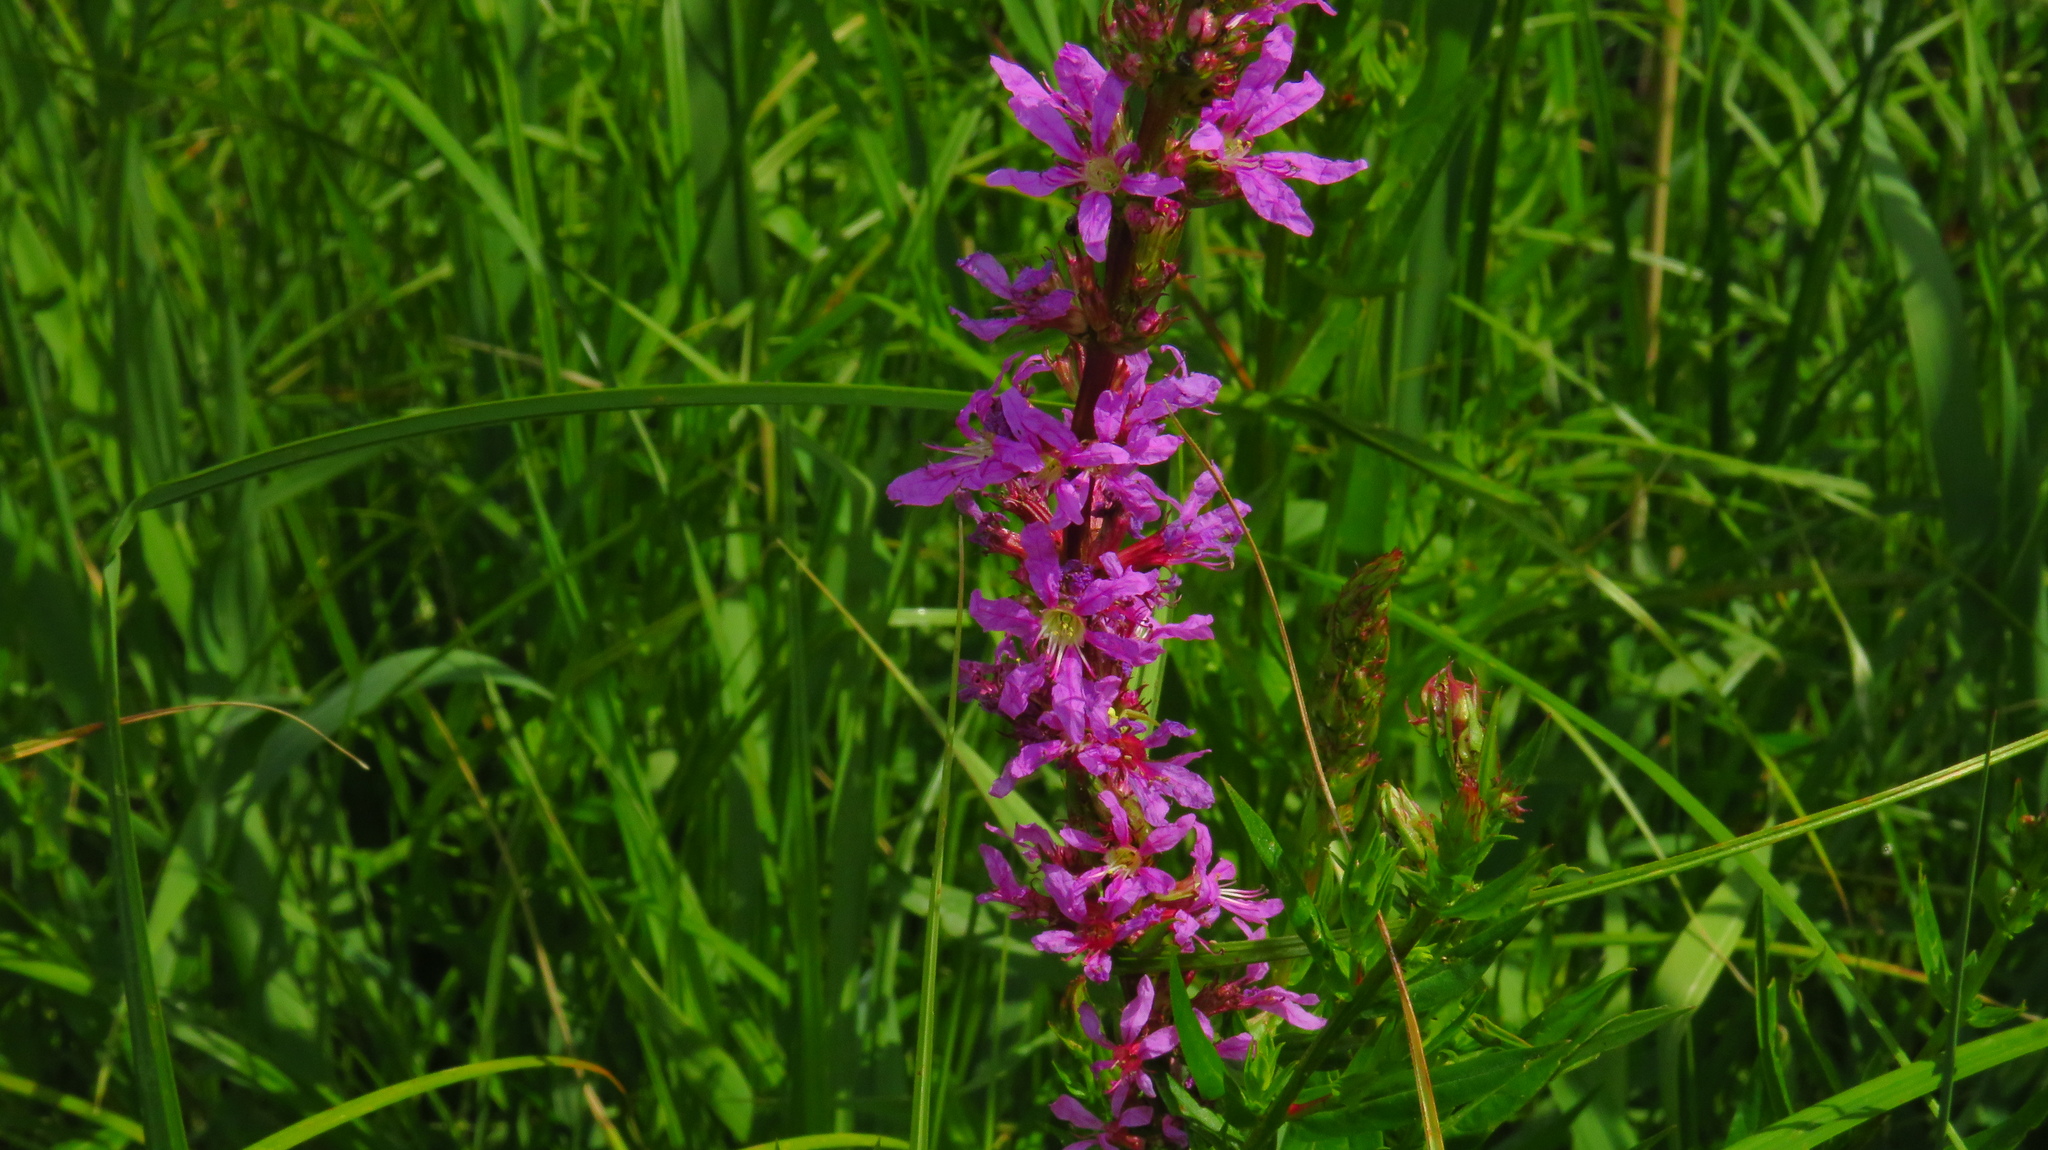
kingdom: Plantae
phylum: Tracheophyta
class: Magnoliopsida
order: Myrtales
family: Lythraceae
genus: Lythrum
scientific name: Lythrum salicaria
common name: Purple loosestrife
